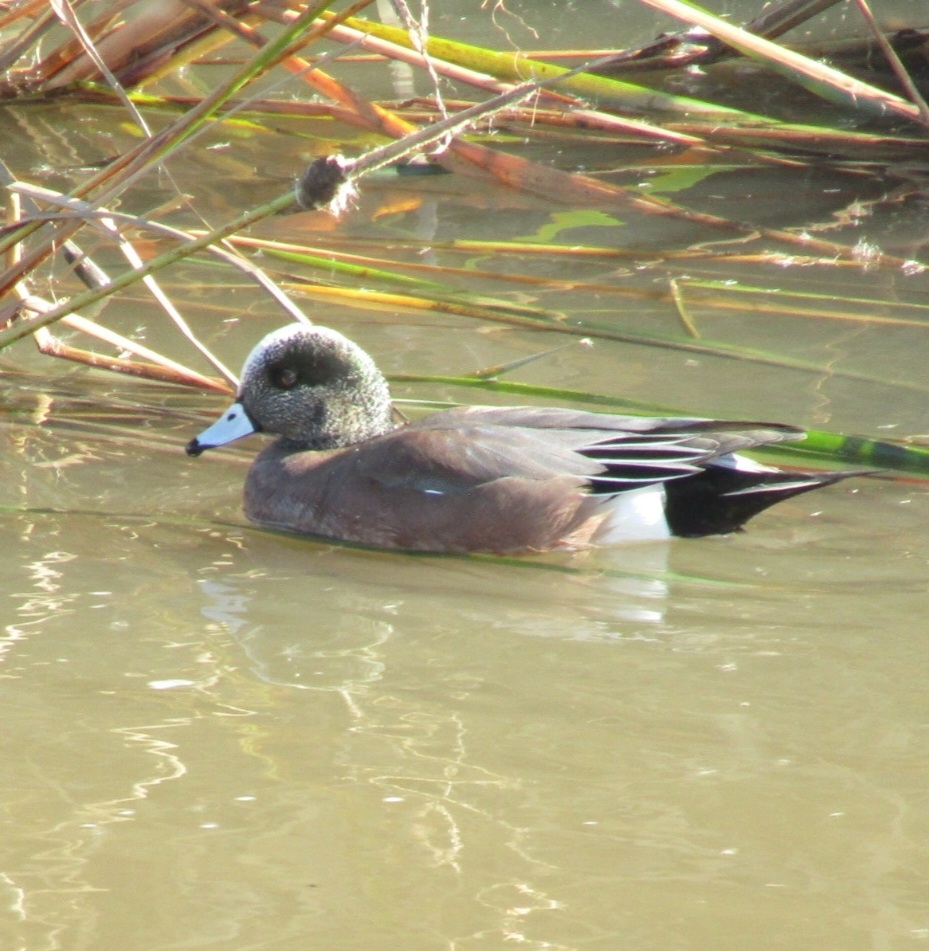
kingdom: Animalia
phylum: Chordata
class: Aves
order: Anseriformes
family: Anatidae
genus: Mareca
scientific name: Mareca americana
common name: American wigeon
